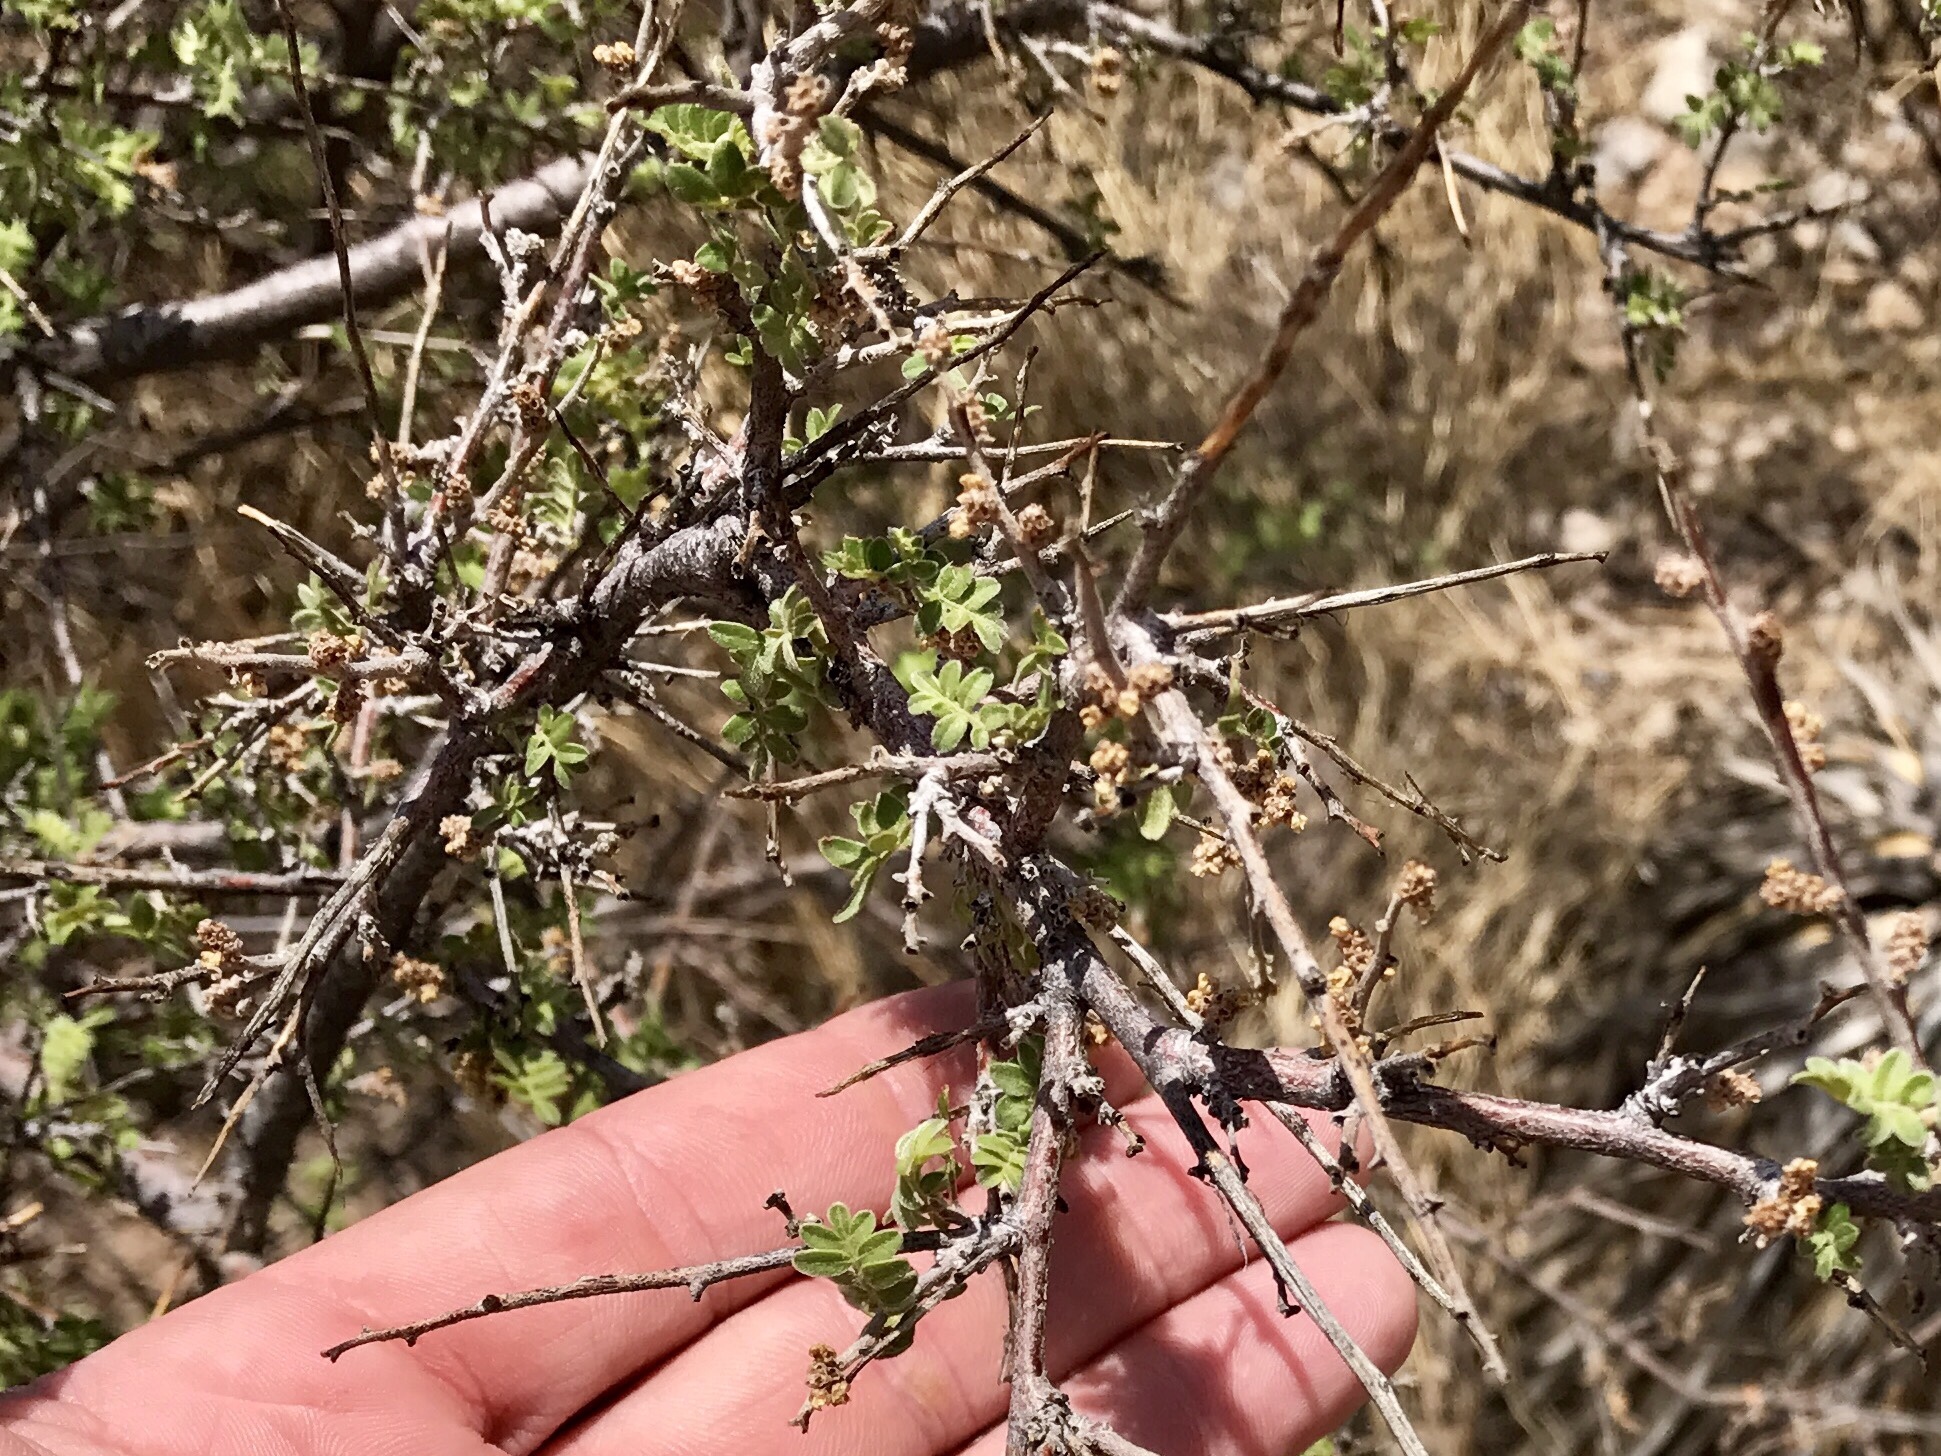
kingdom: Plantae
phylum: Tracheophyta
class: Magnoliopsida
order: Sapindales
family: Anacardiaceae
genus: Rhus
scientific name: Rhus microphylla
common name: Desert sumac
